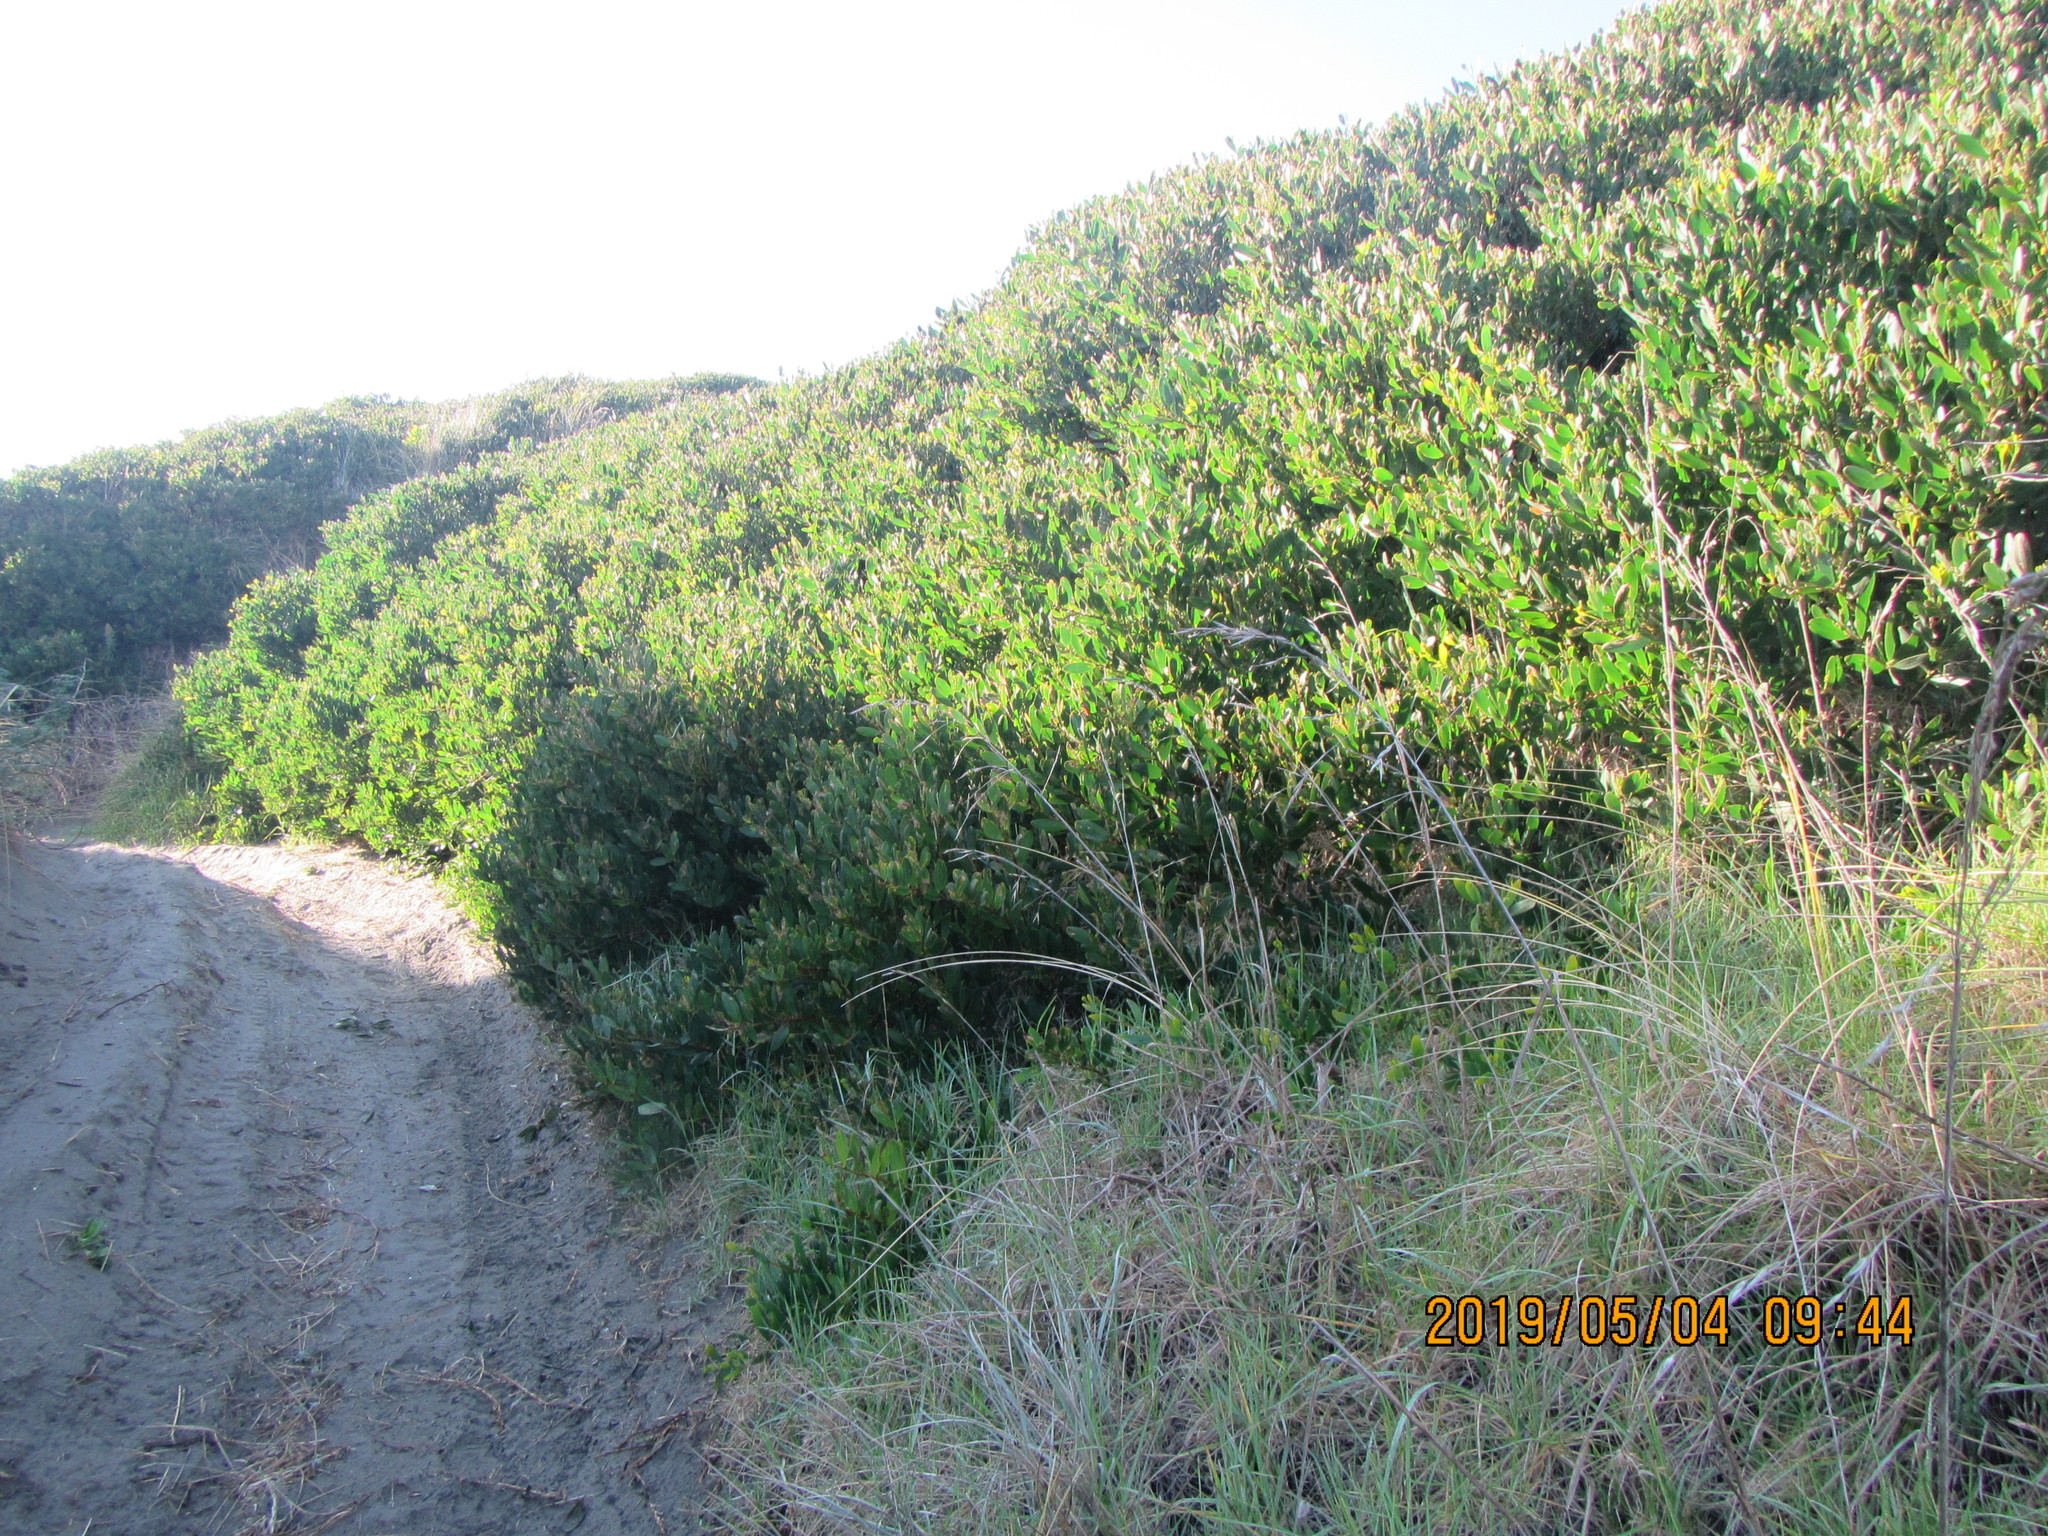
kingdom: Plantae
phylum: Tracheophyta
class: Magnoliopsida
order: Fabales
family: Fabaceae
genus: Acacia
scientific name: Acacia longifolia
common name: Sydney golden wattle
